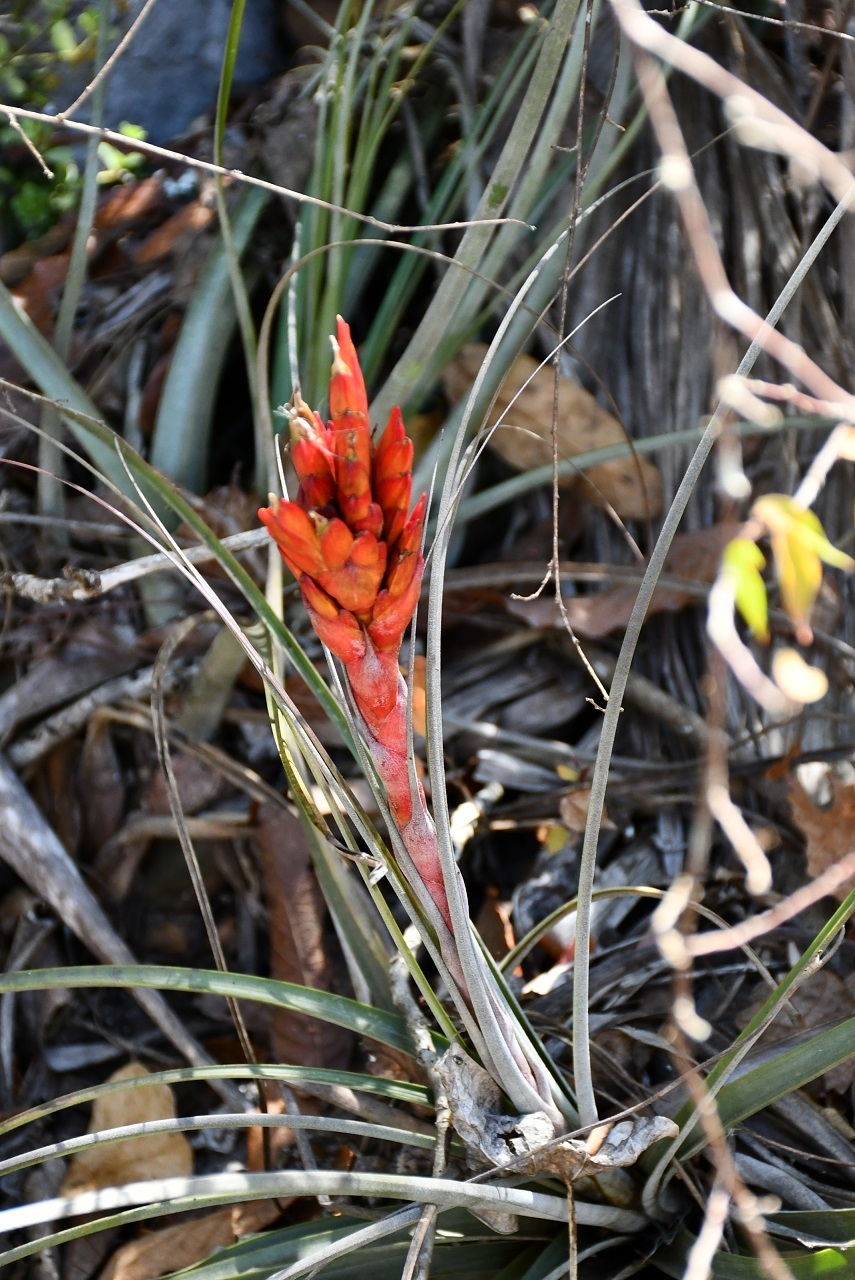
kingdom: Plantae
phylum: Tracheophyta
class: Liliopsida
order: Poales
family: Bromeliaceae
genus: Tillandsia
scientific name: Tillandsia rotundata
